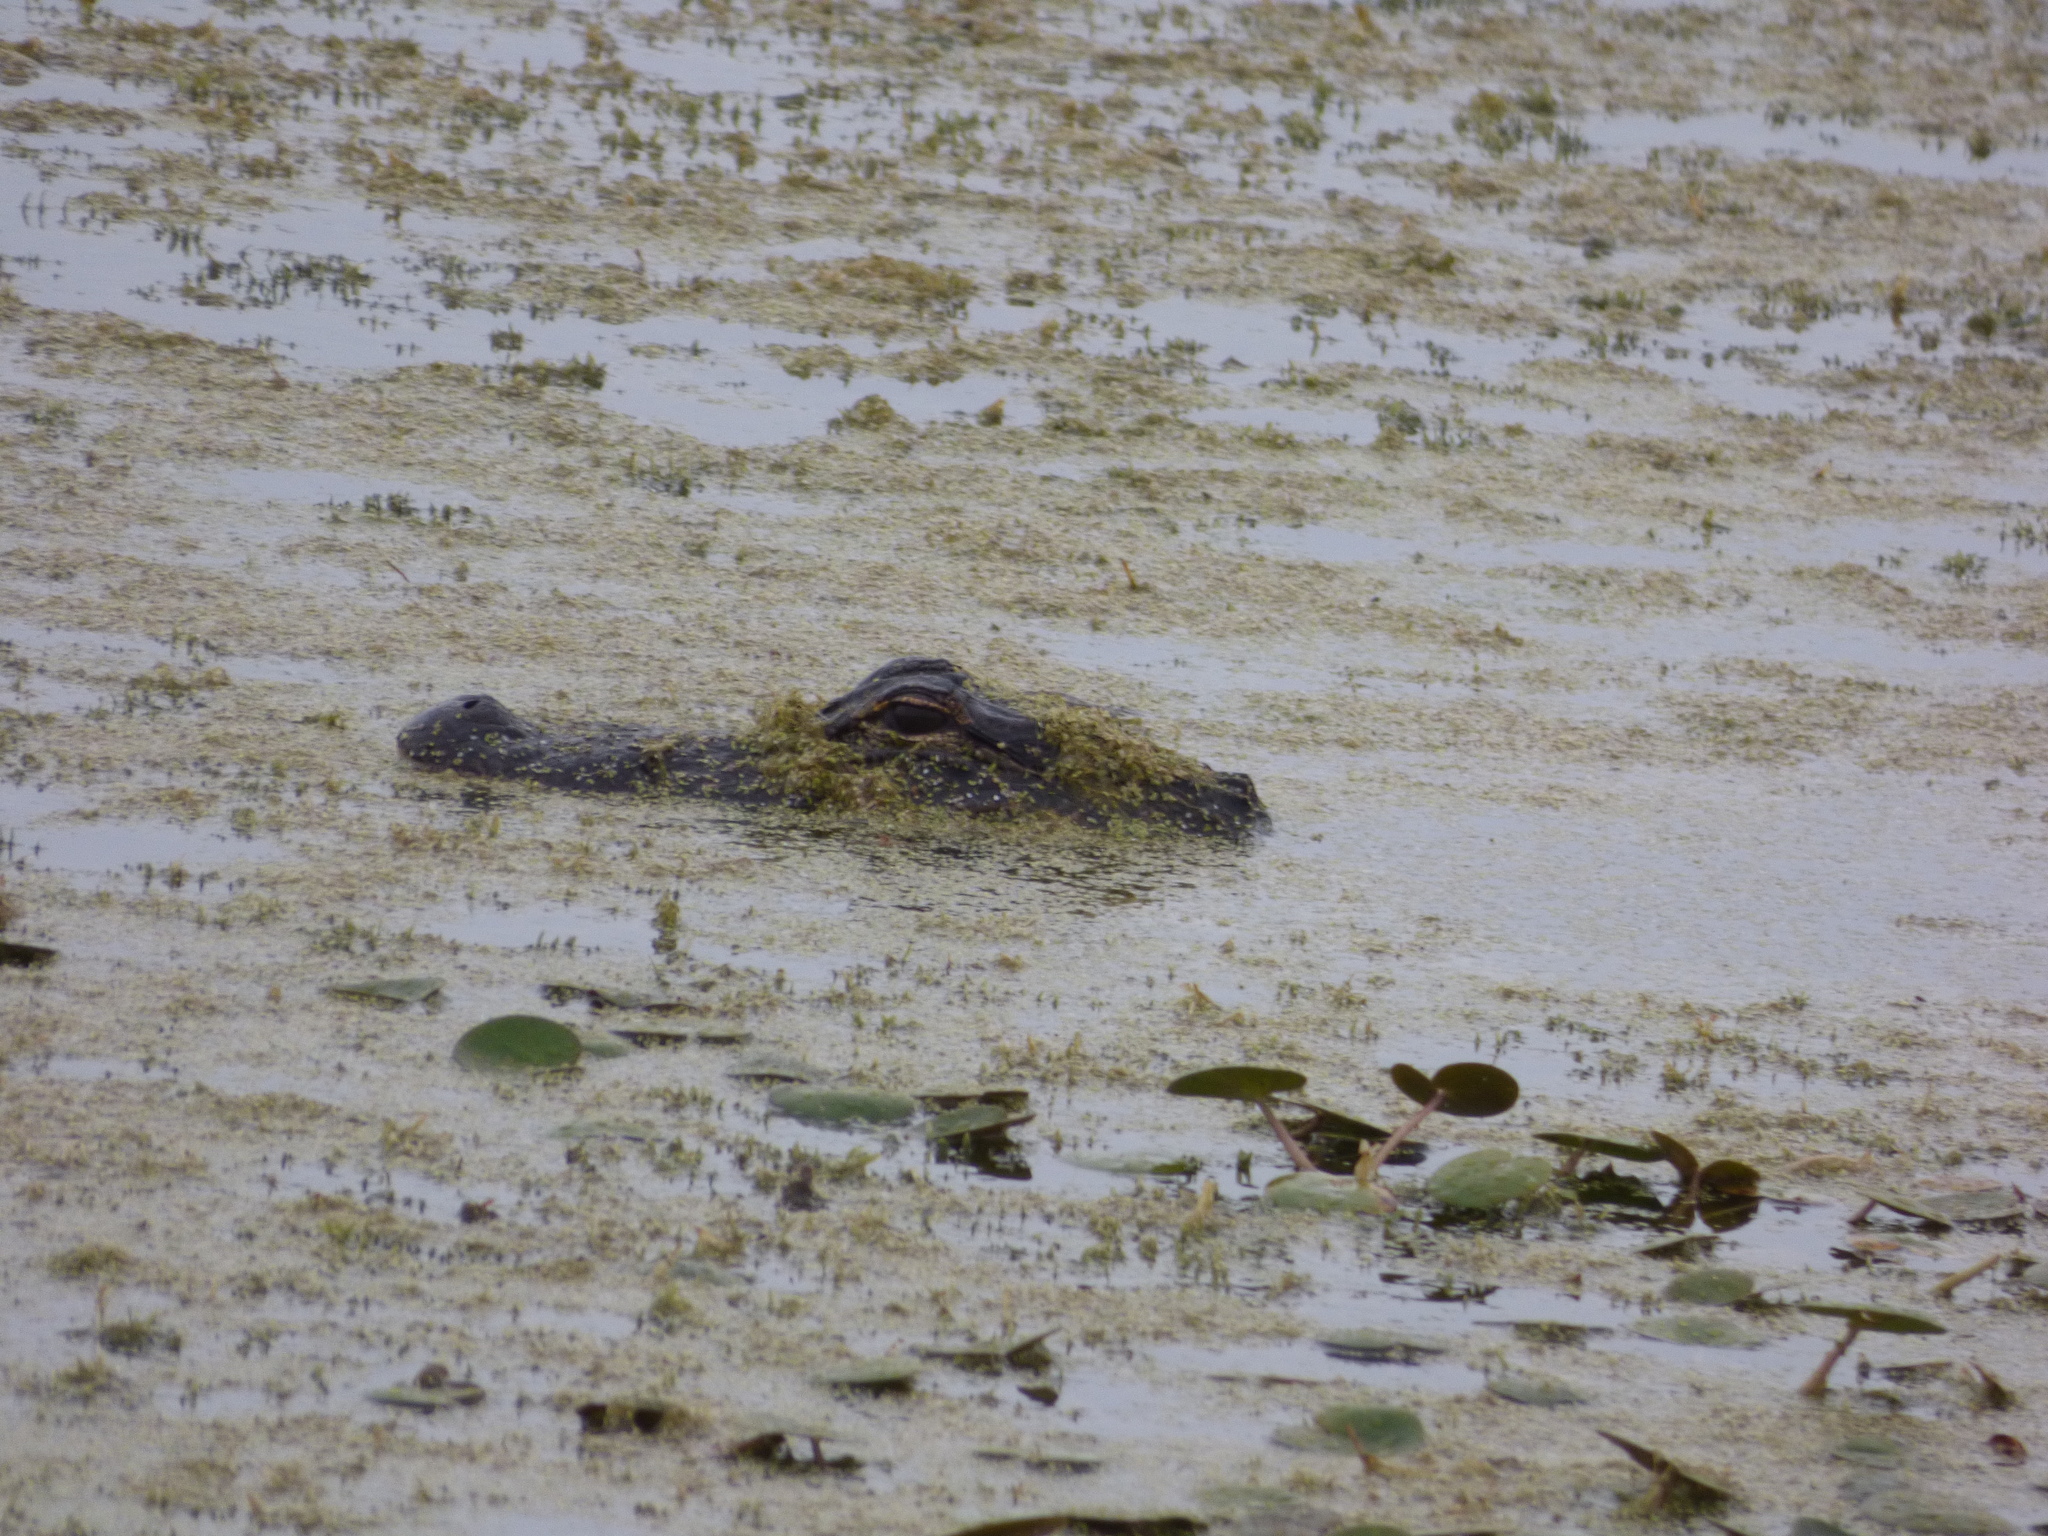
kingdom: Animalia
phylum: Chordata
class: Crocodylia
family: Alligatoridae
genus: Alligator
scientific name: Alligator mississippiensis
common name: American alligator
